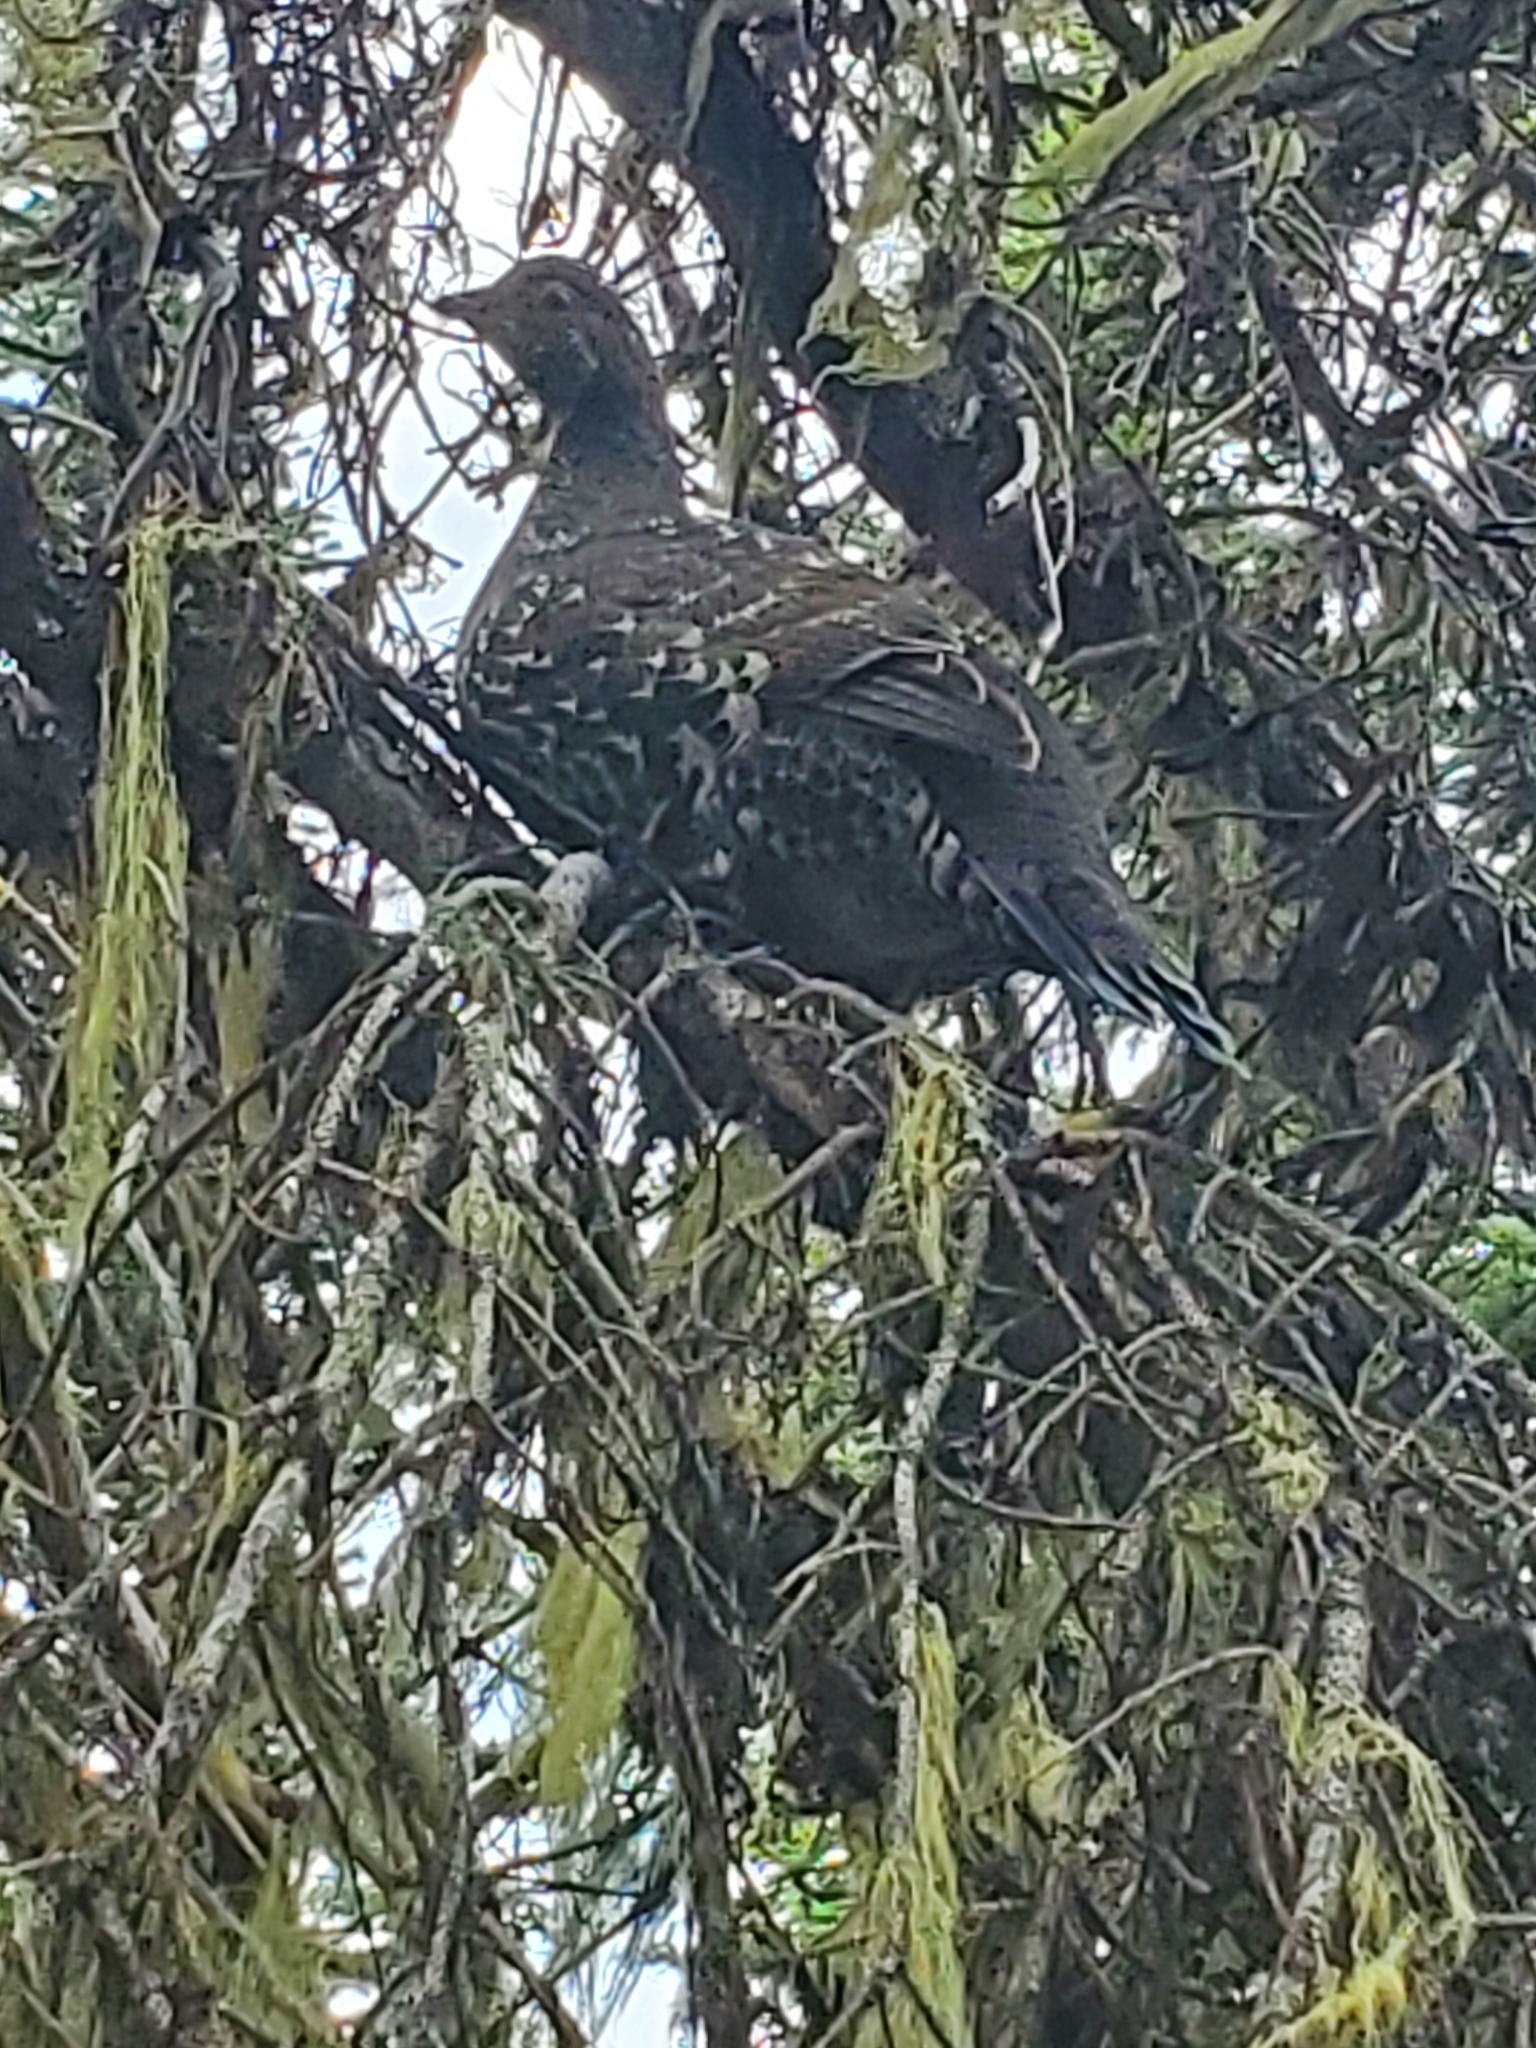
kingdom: Animalia
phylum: Chordata
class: Aves
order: Galliformes
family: Phasianidae
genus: Dendragapus
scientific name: Dendragapus fuliginosus
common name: Sooty grouse
